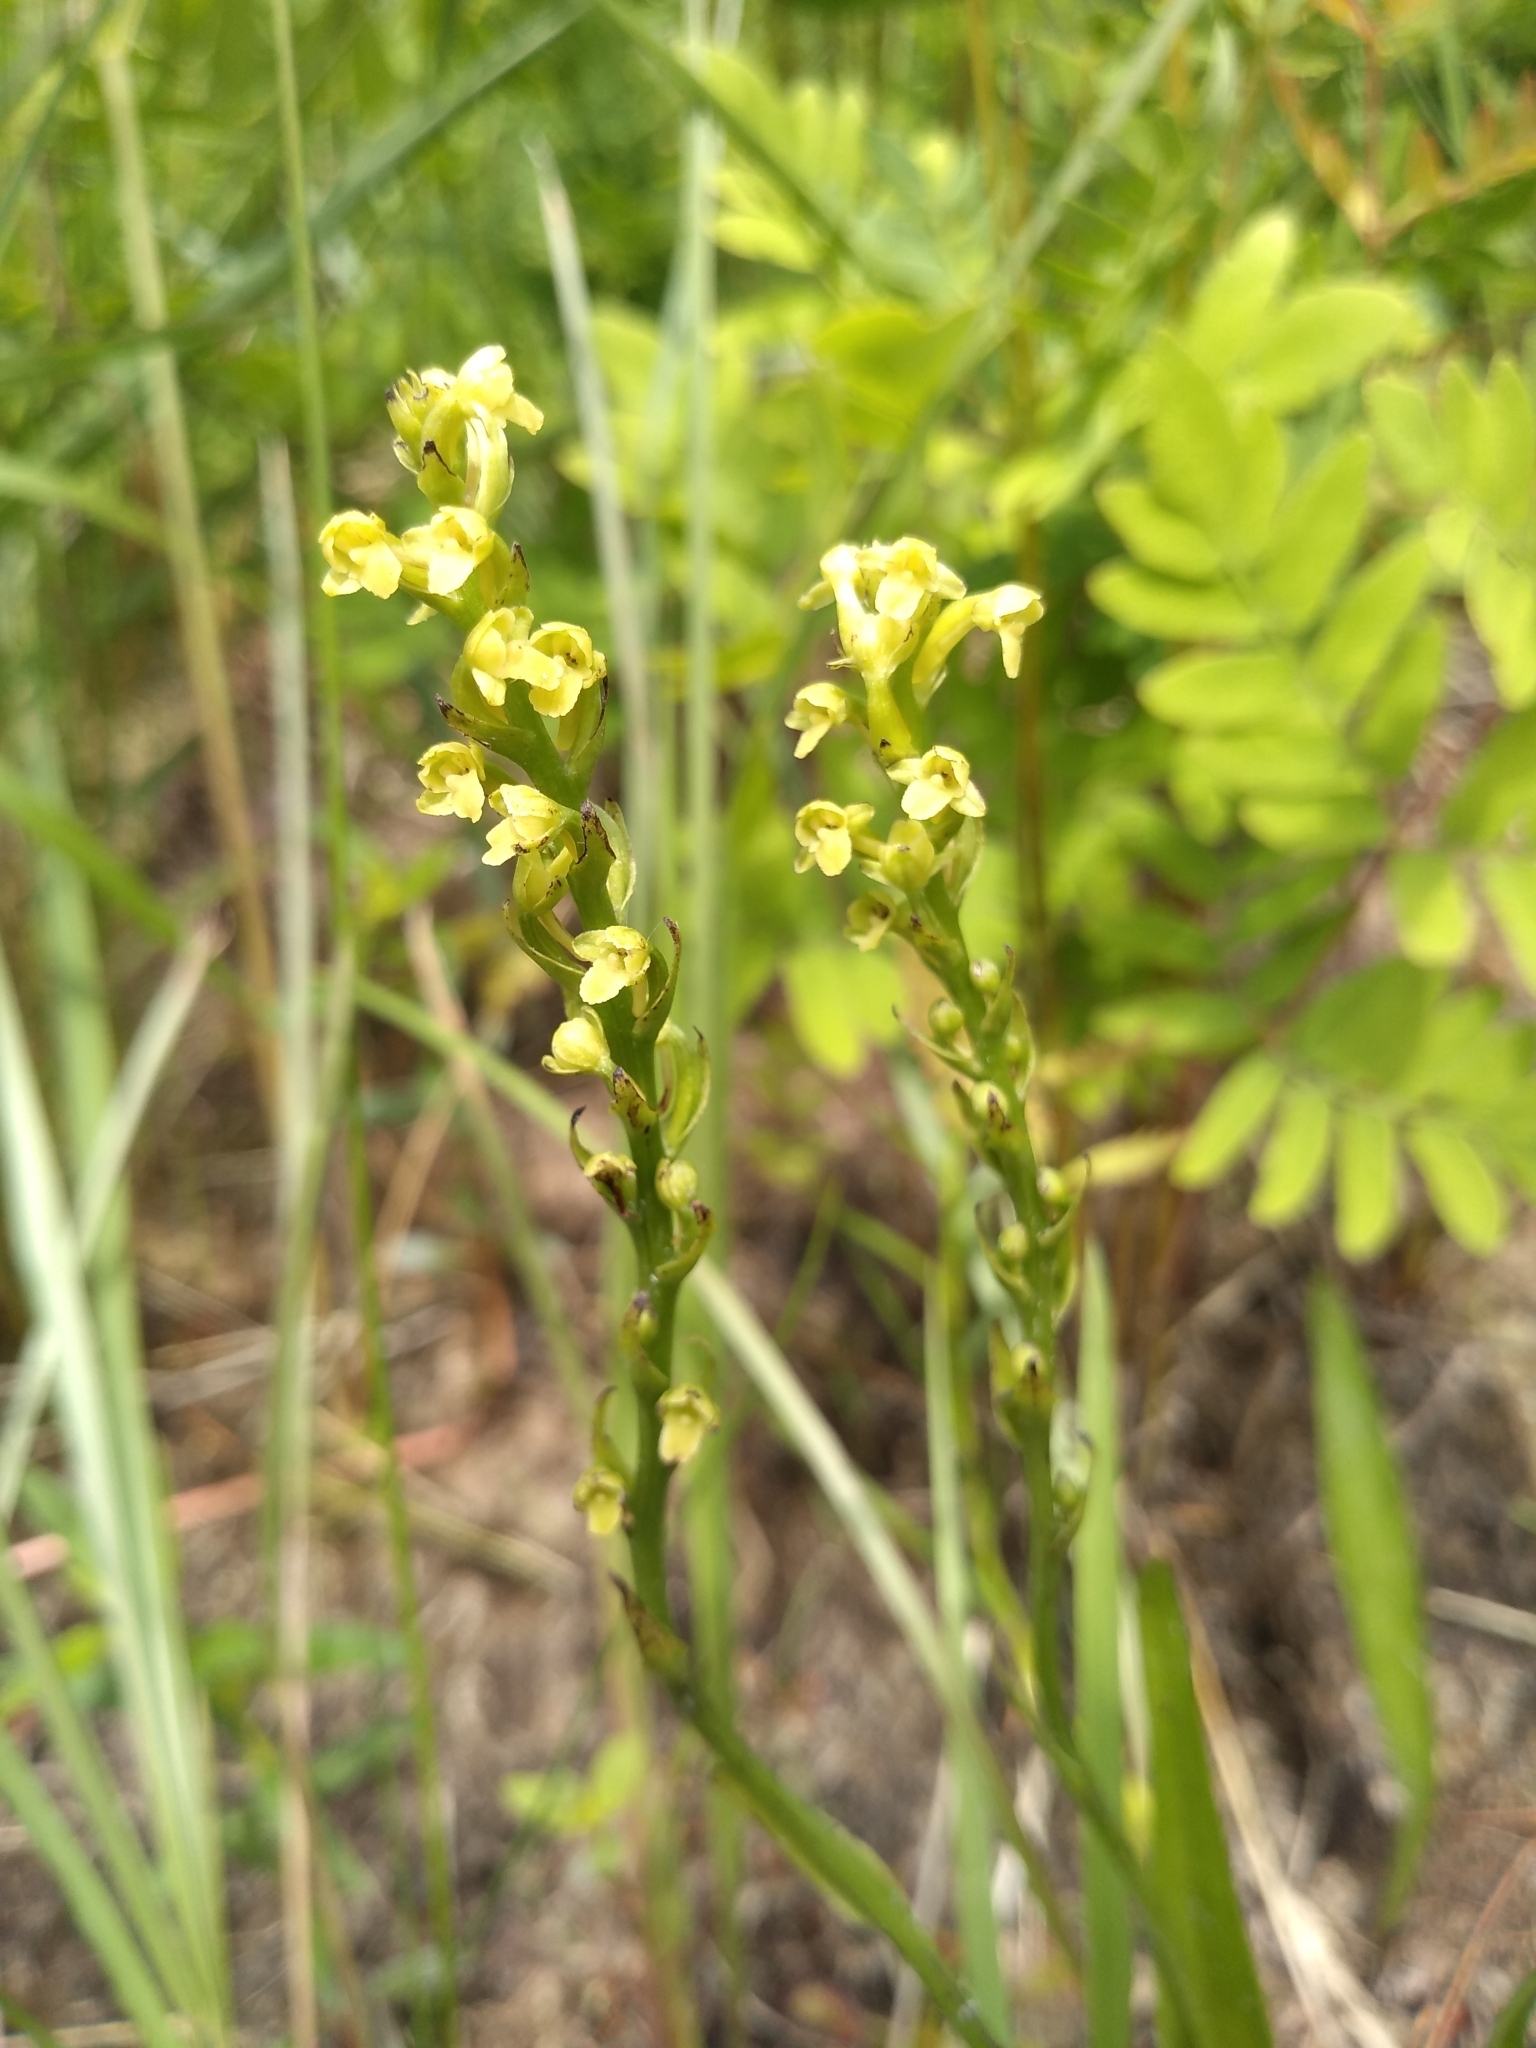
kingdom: Plantae
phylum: Tracheophyta
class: Liliopsida
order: Asparagales
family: Orchidaceae
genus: Platanthera
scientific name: Platanthera flava
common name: Gypsy-spikes
